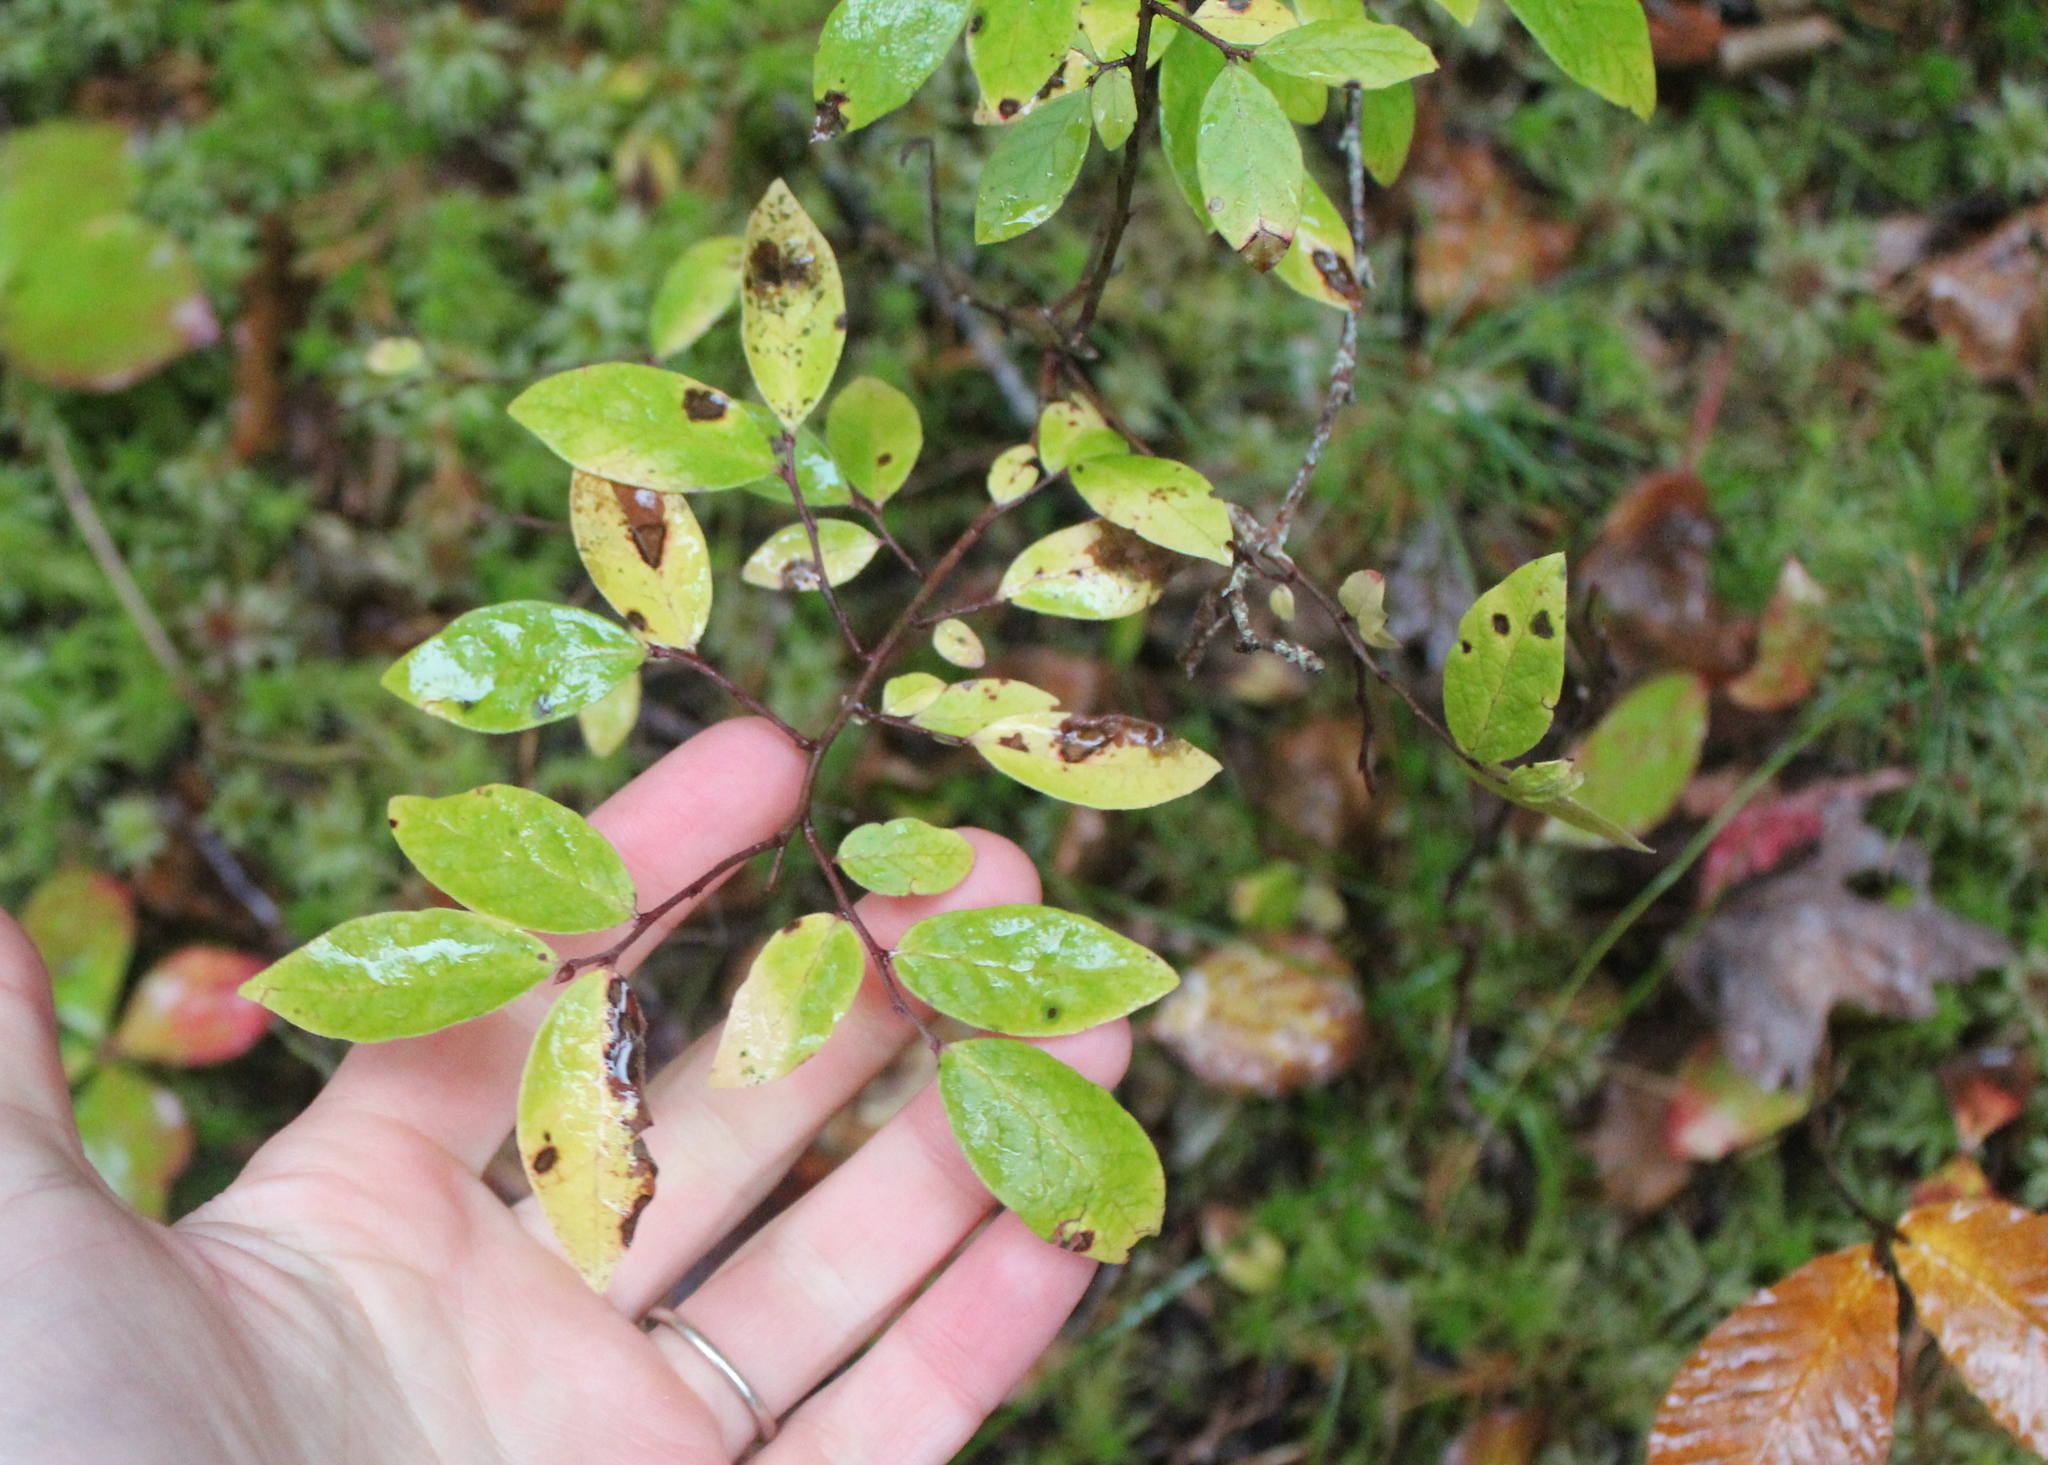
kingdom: Plantae
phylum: Tracheophyta
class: Magnoliopsida
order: Aquifoliales
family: Aquifoliaceae
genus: Ilex
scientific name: Ilex mucronata
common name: Catberry
